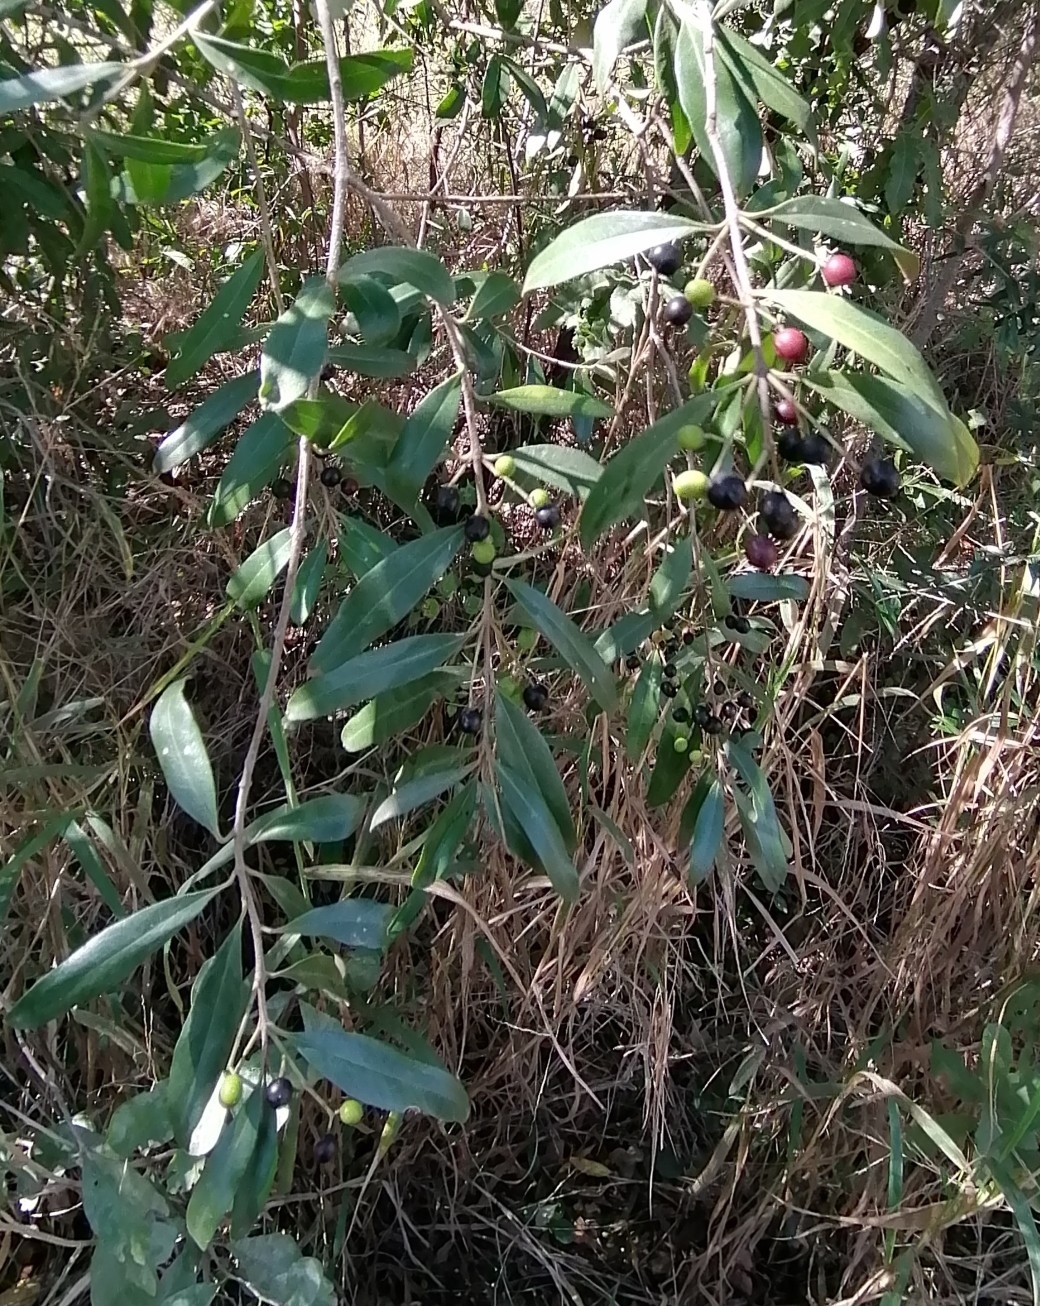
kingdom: Plantae
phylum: Tracheophyta
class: Magnoliopsida
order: Lamiales
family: Oleaceae
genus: Olea
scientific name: Olea europaea
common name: Olive
